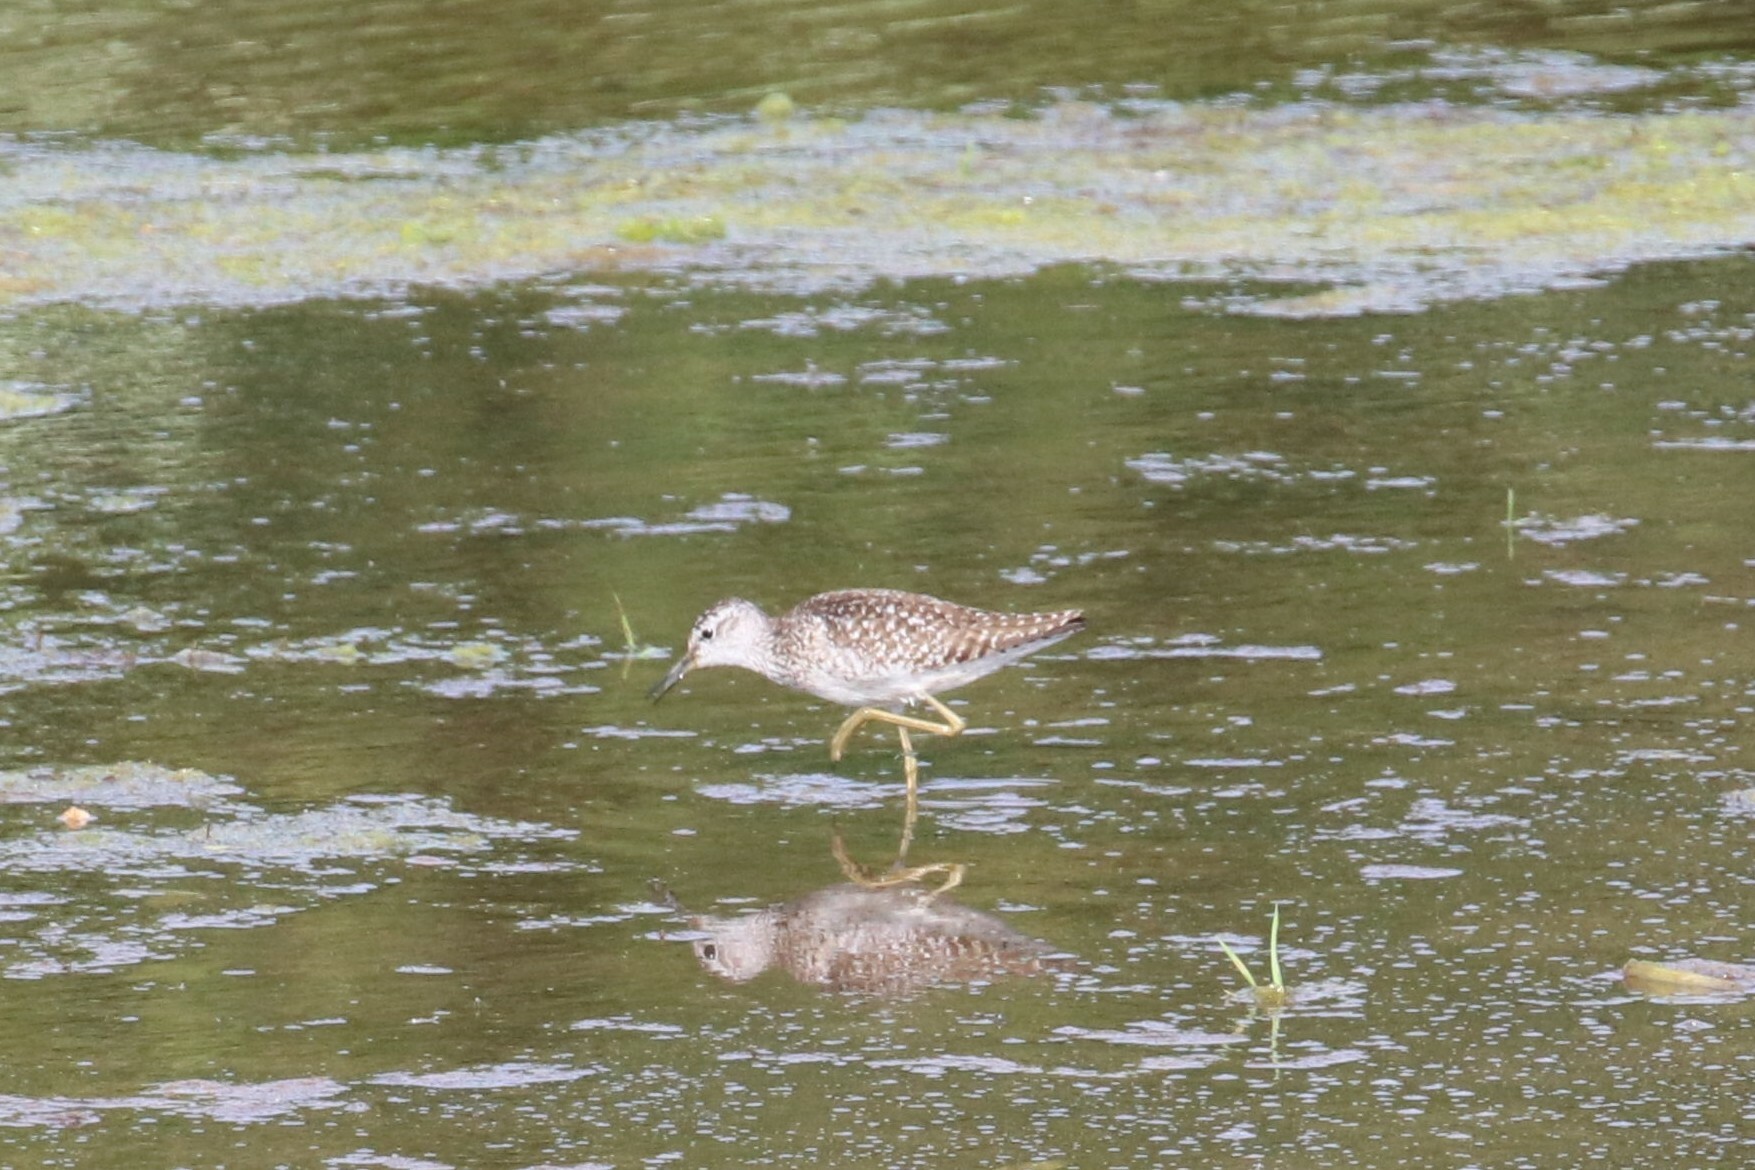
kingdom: Animalia
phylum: Chordata
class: Aves
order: Charadriiformes
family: Scolopacidae
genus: Tringa
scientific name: Tringa glareola
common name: Wood sandpiper
